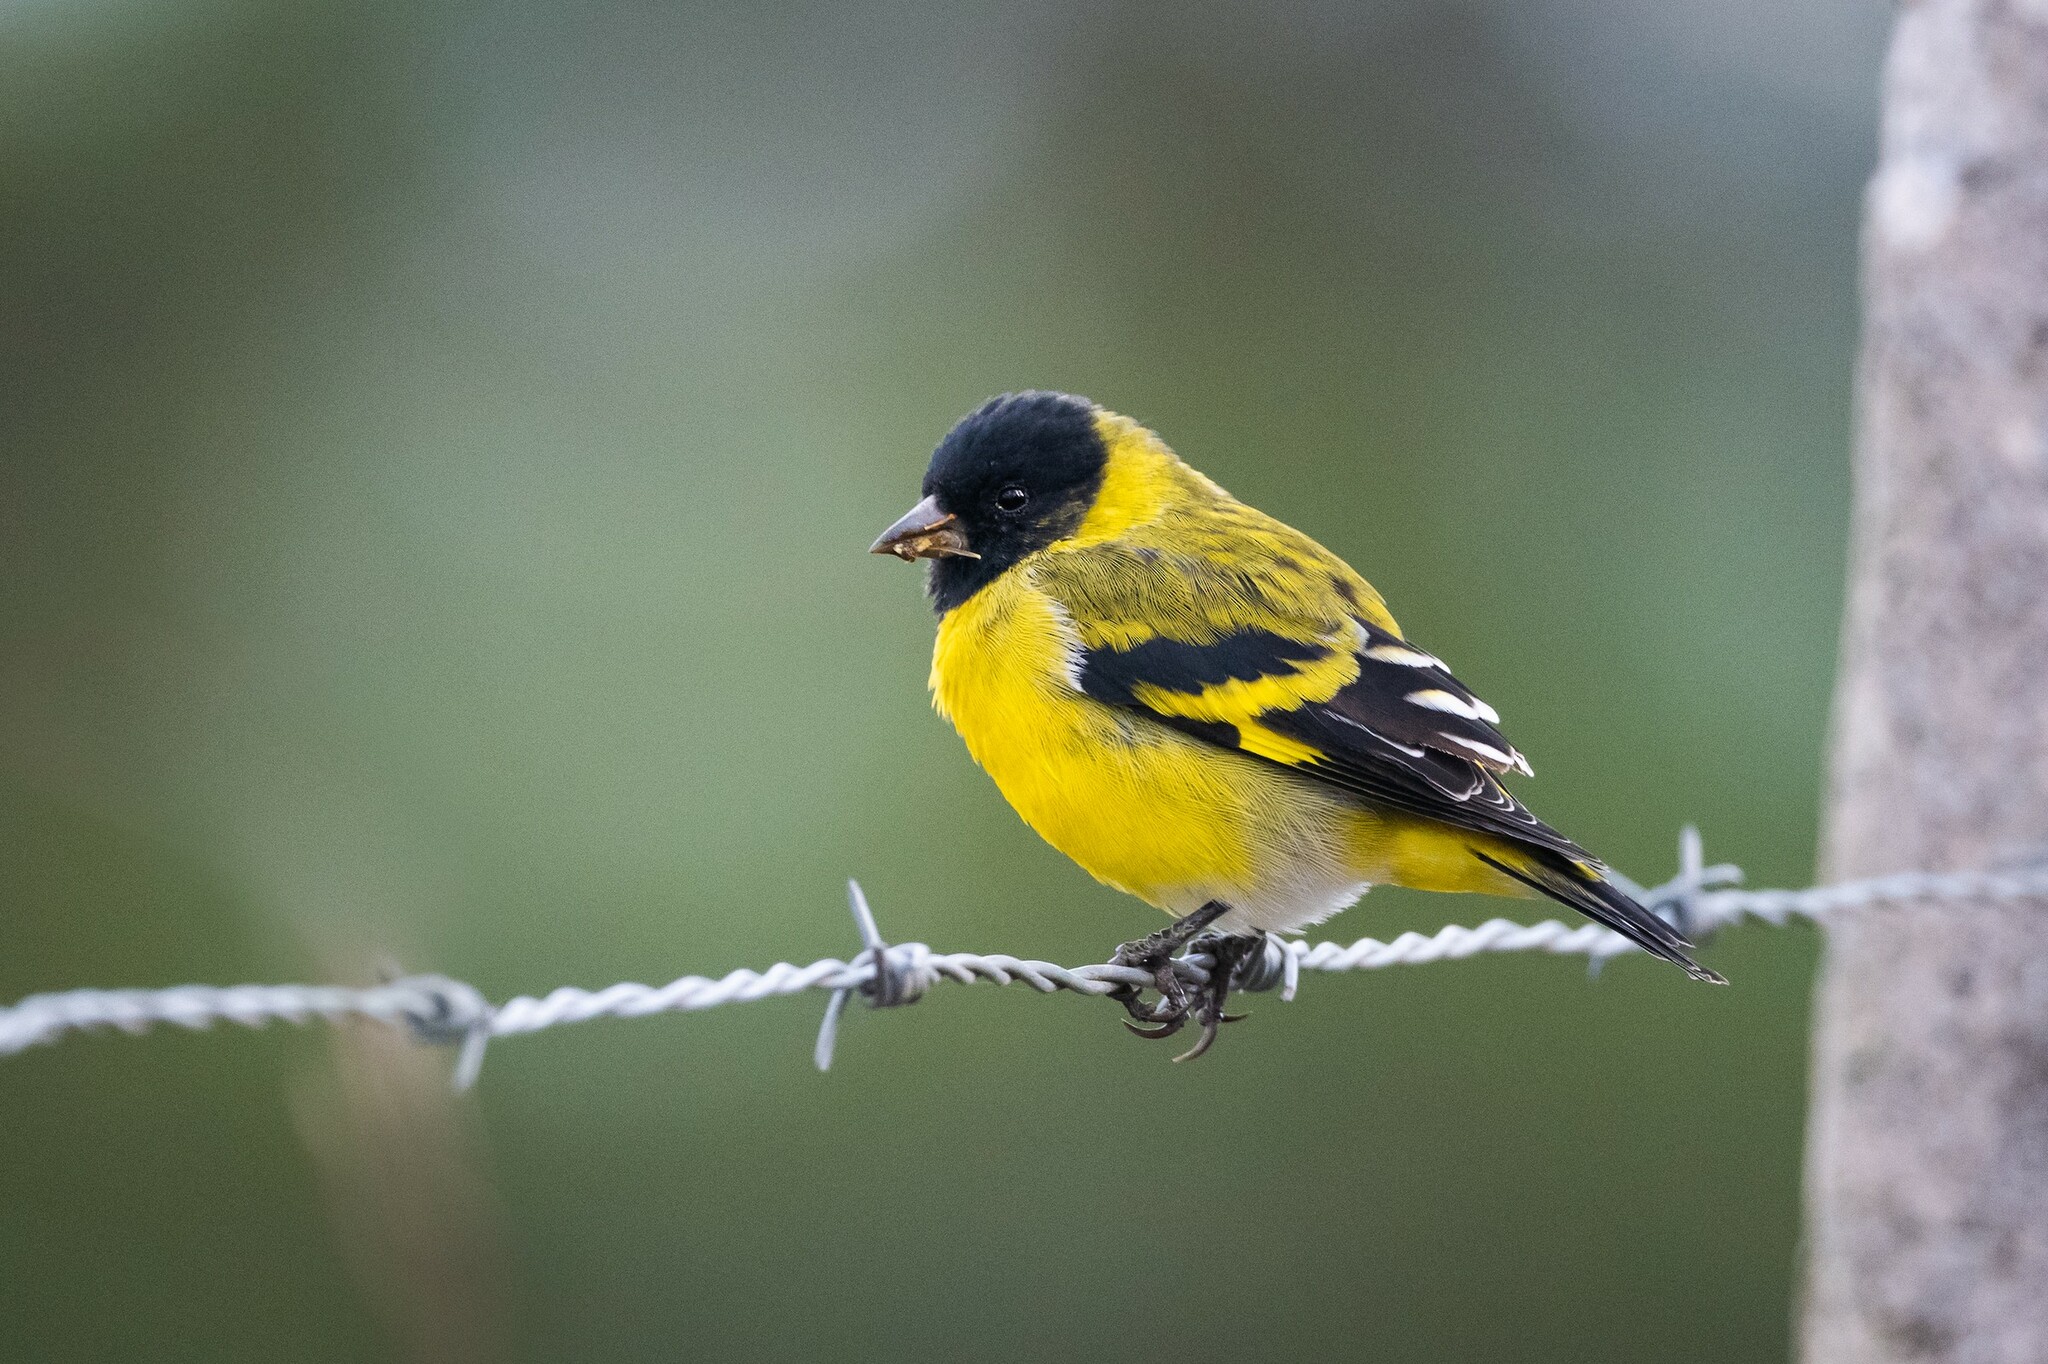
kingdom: Animalia
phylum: Chordata
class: Aves
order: Passeriformes
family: Fringillidae
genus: Spinus
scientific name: Spinus magellanicus
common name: Hooded siskin
